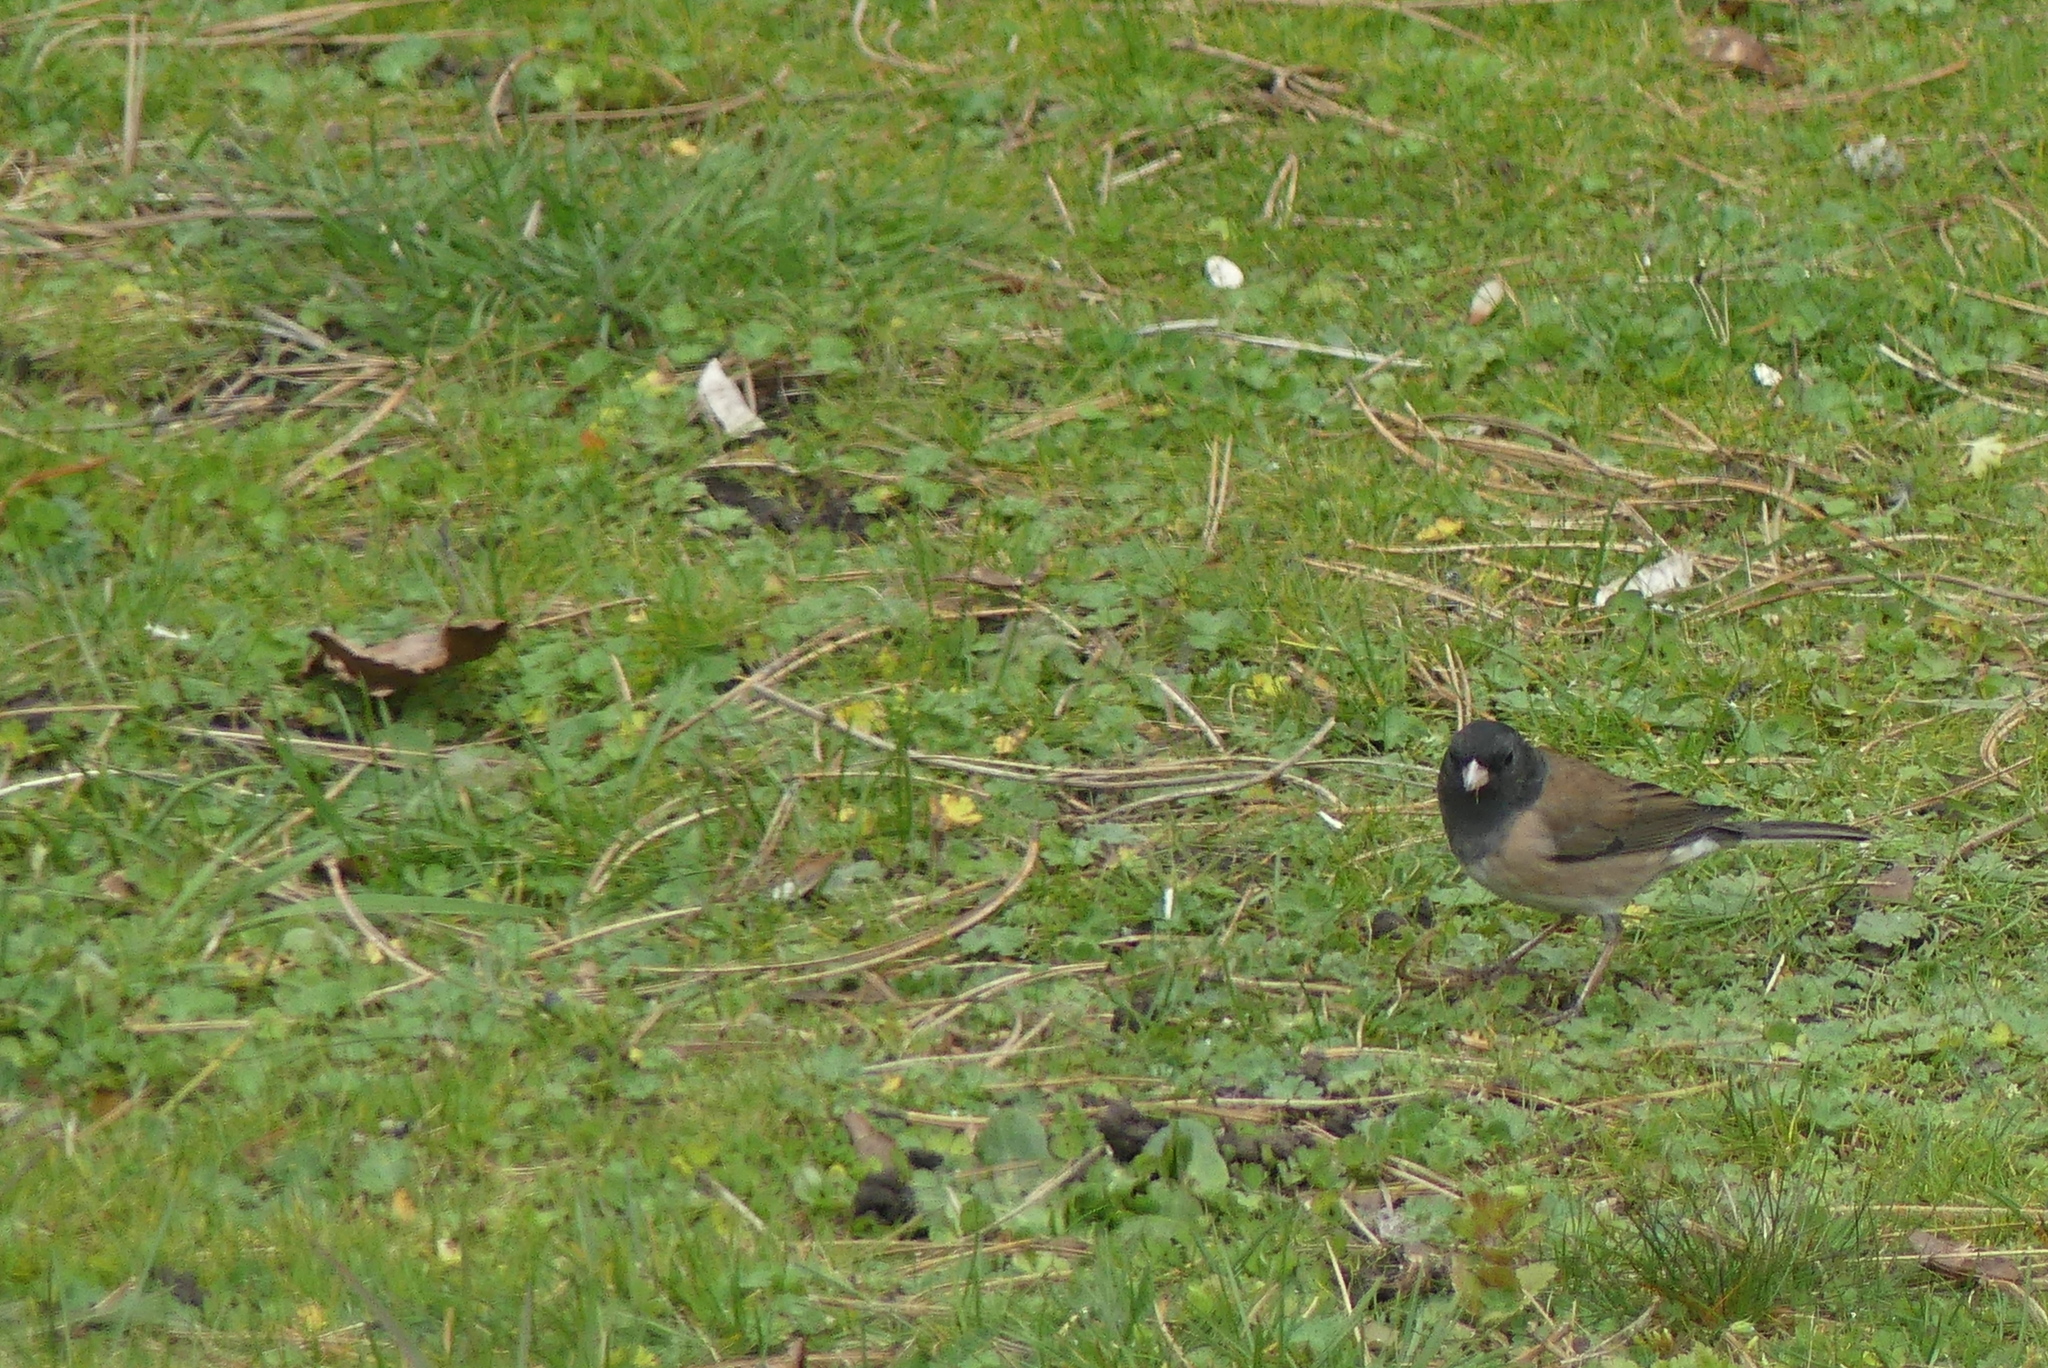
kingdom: Animalia
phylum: Chordata
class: Aves
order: Passeriformes
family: Passerellidae
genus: Junco
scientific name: Junco hyemalis
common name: Dark-eyed junco
